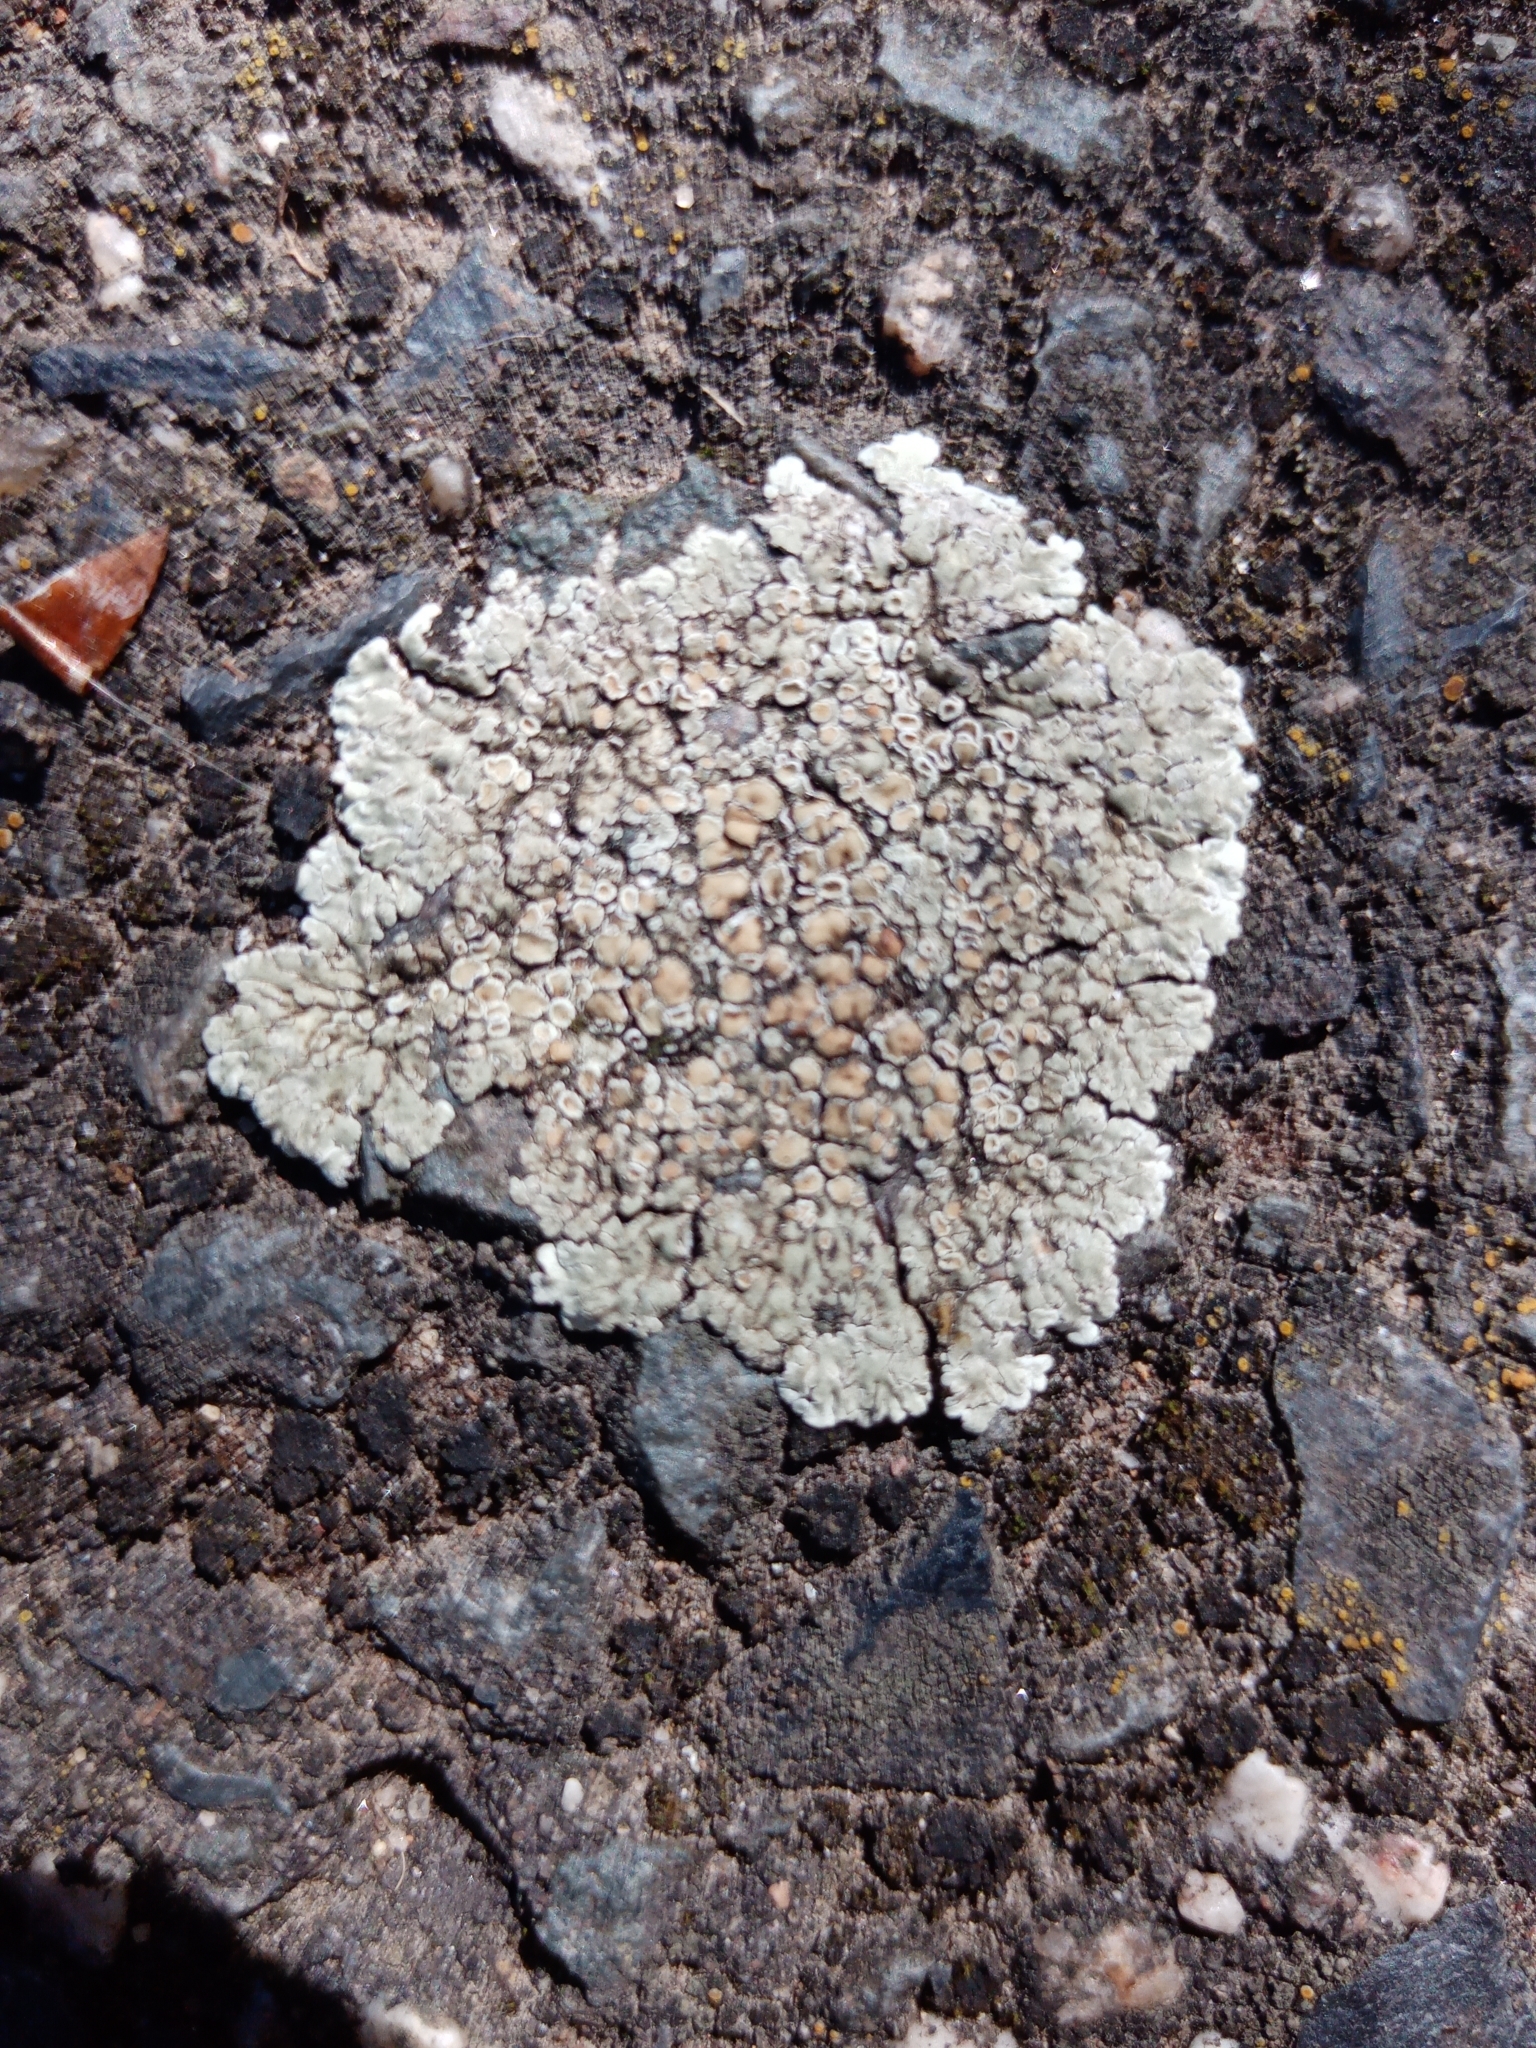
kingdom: Fungi
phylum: Ascomycota
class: Lecanoromycetes
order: Lecanorales
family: Lecanoraceae
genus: Protoparmeliopsis
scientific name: Protoparmeliopsis muralis
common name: Stonewall rim lichen
